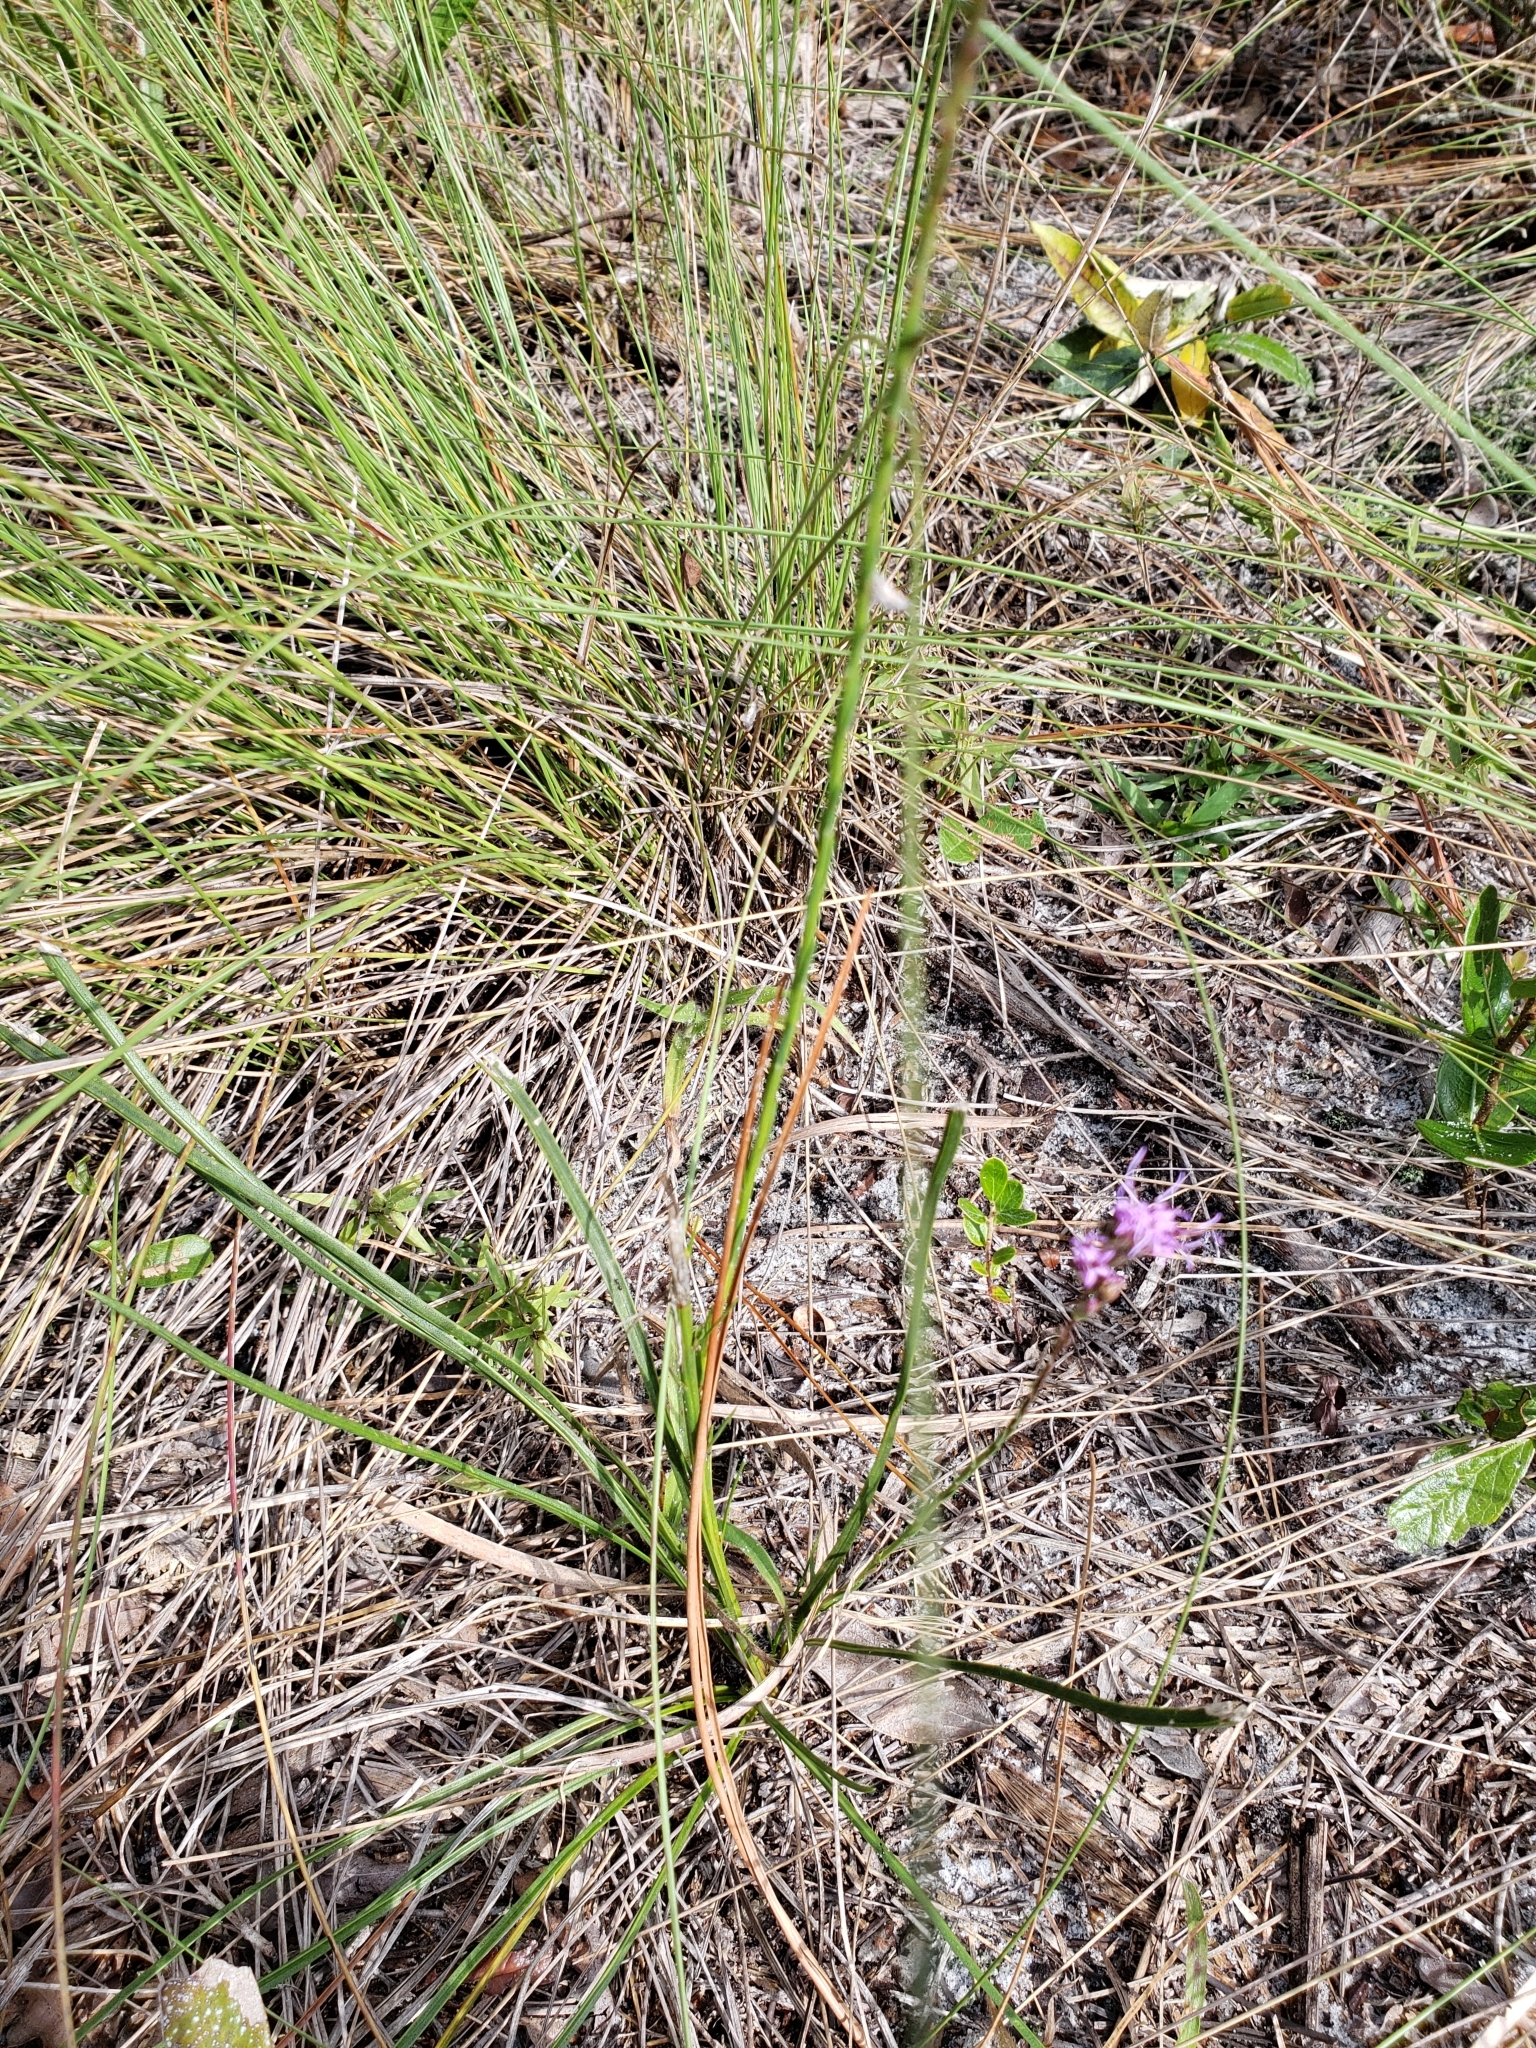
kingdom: Plantae
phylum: Tracheophyta
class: Magnoliopsida
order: Asterales
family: Asteraceae
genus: Liatris
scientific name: Liatris laevigata
